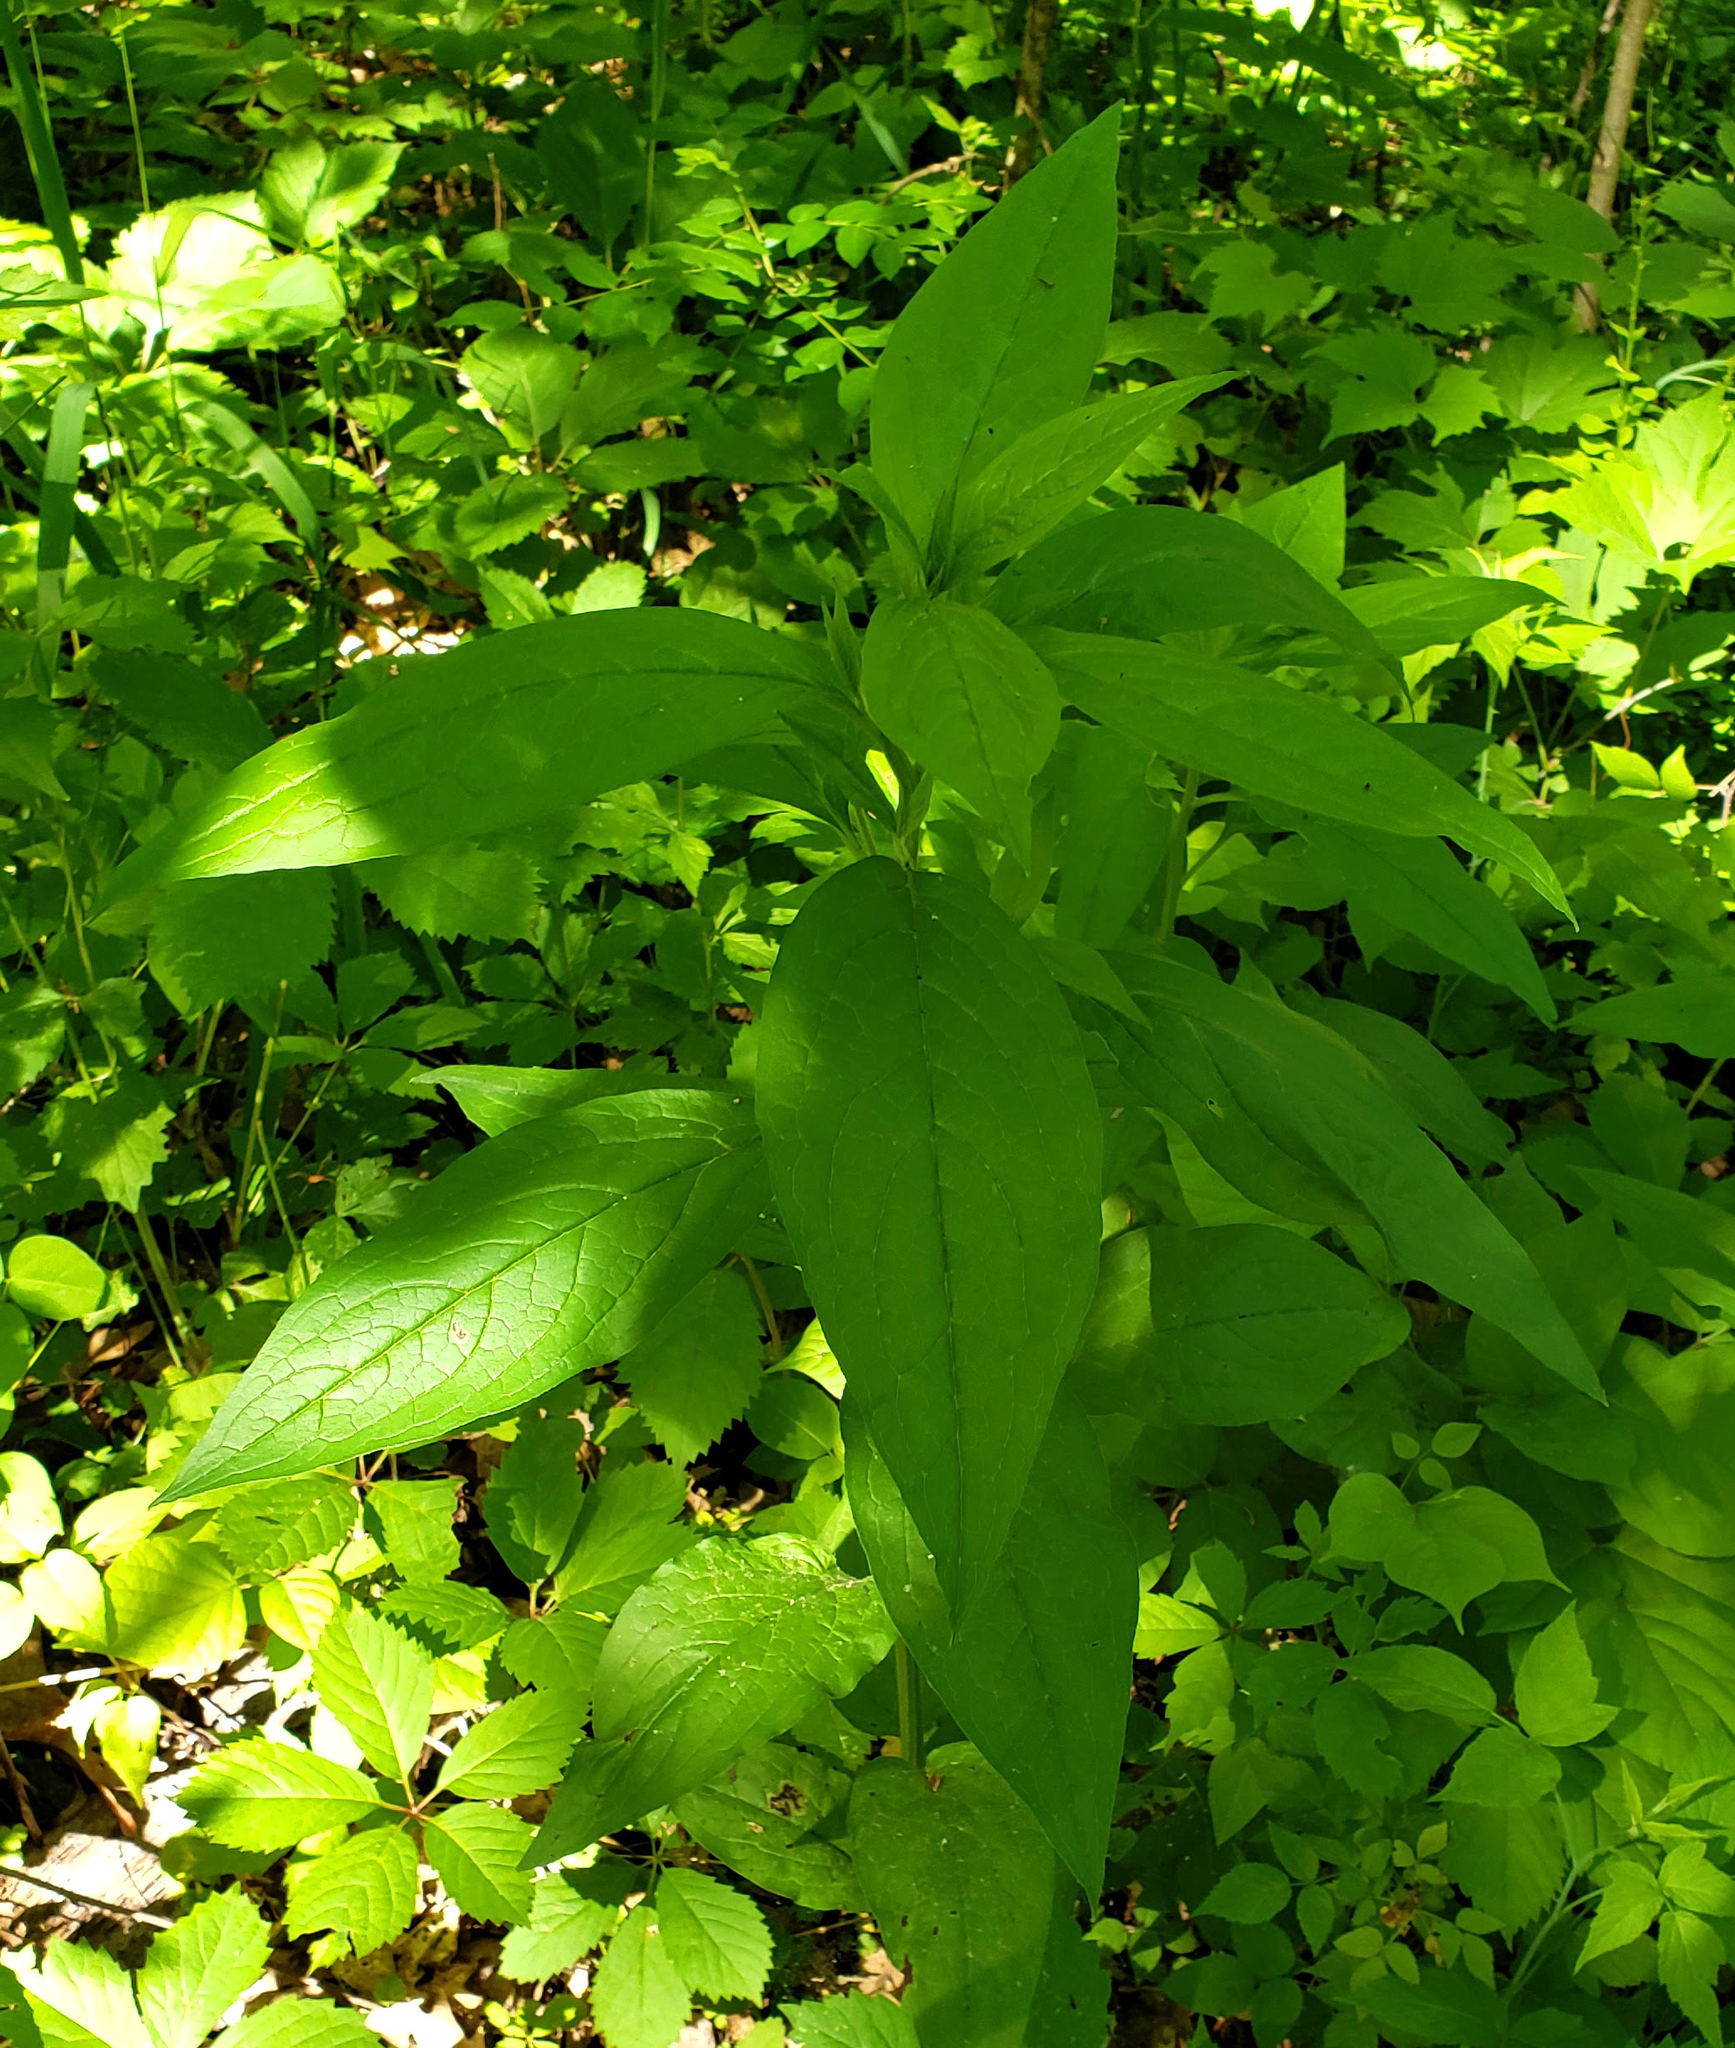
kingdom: Plantae
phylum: Tracheophyta
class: Magnoliopsida
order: Boraginales
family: Boraginaceae
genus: Hackelia
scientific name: Hackelia virginiana
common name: Beggar's-lice
